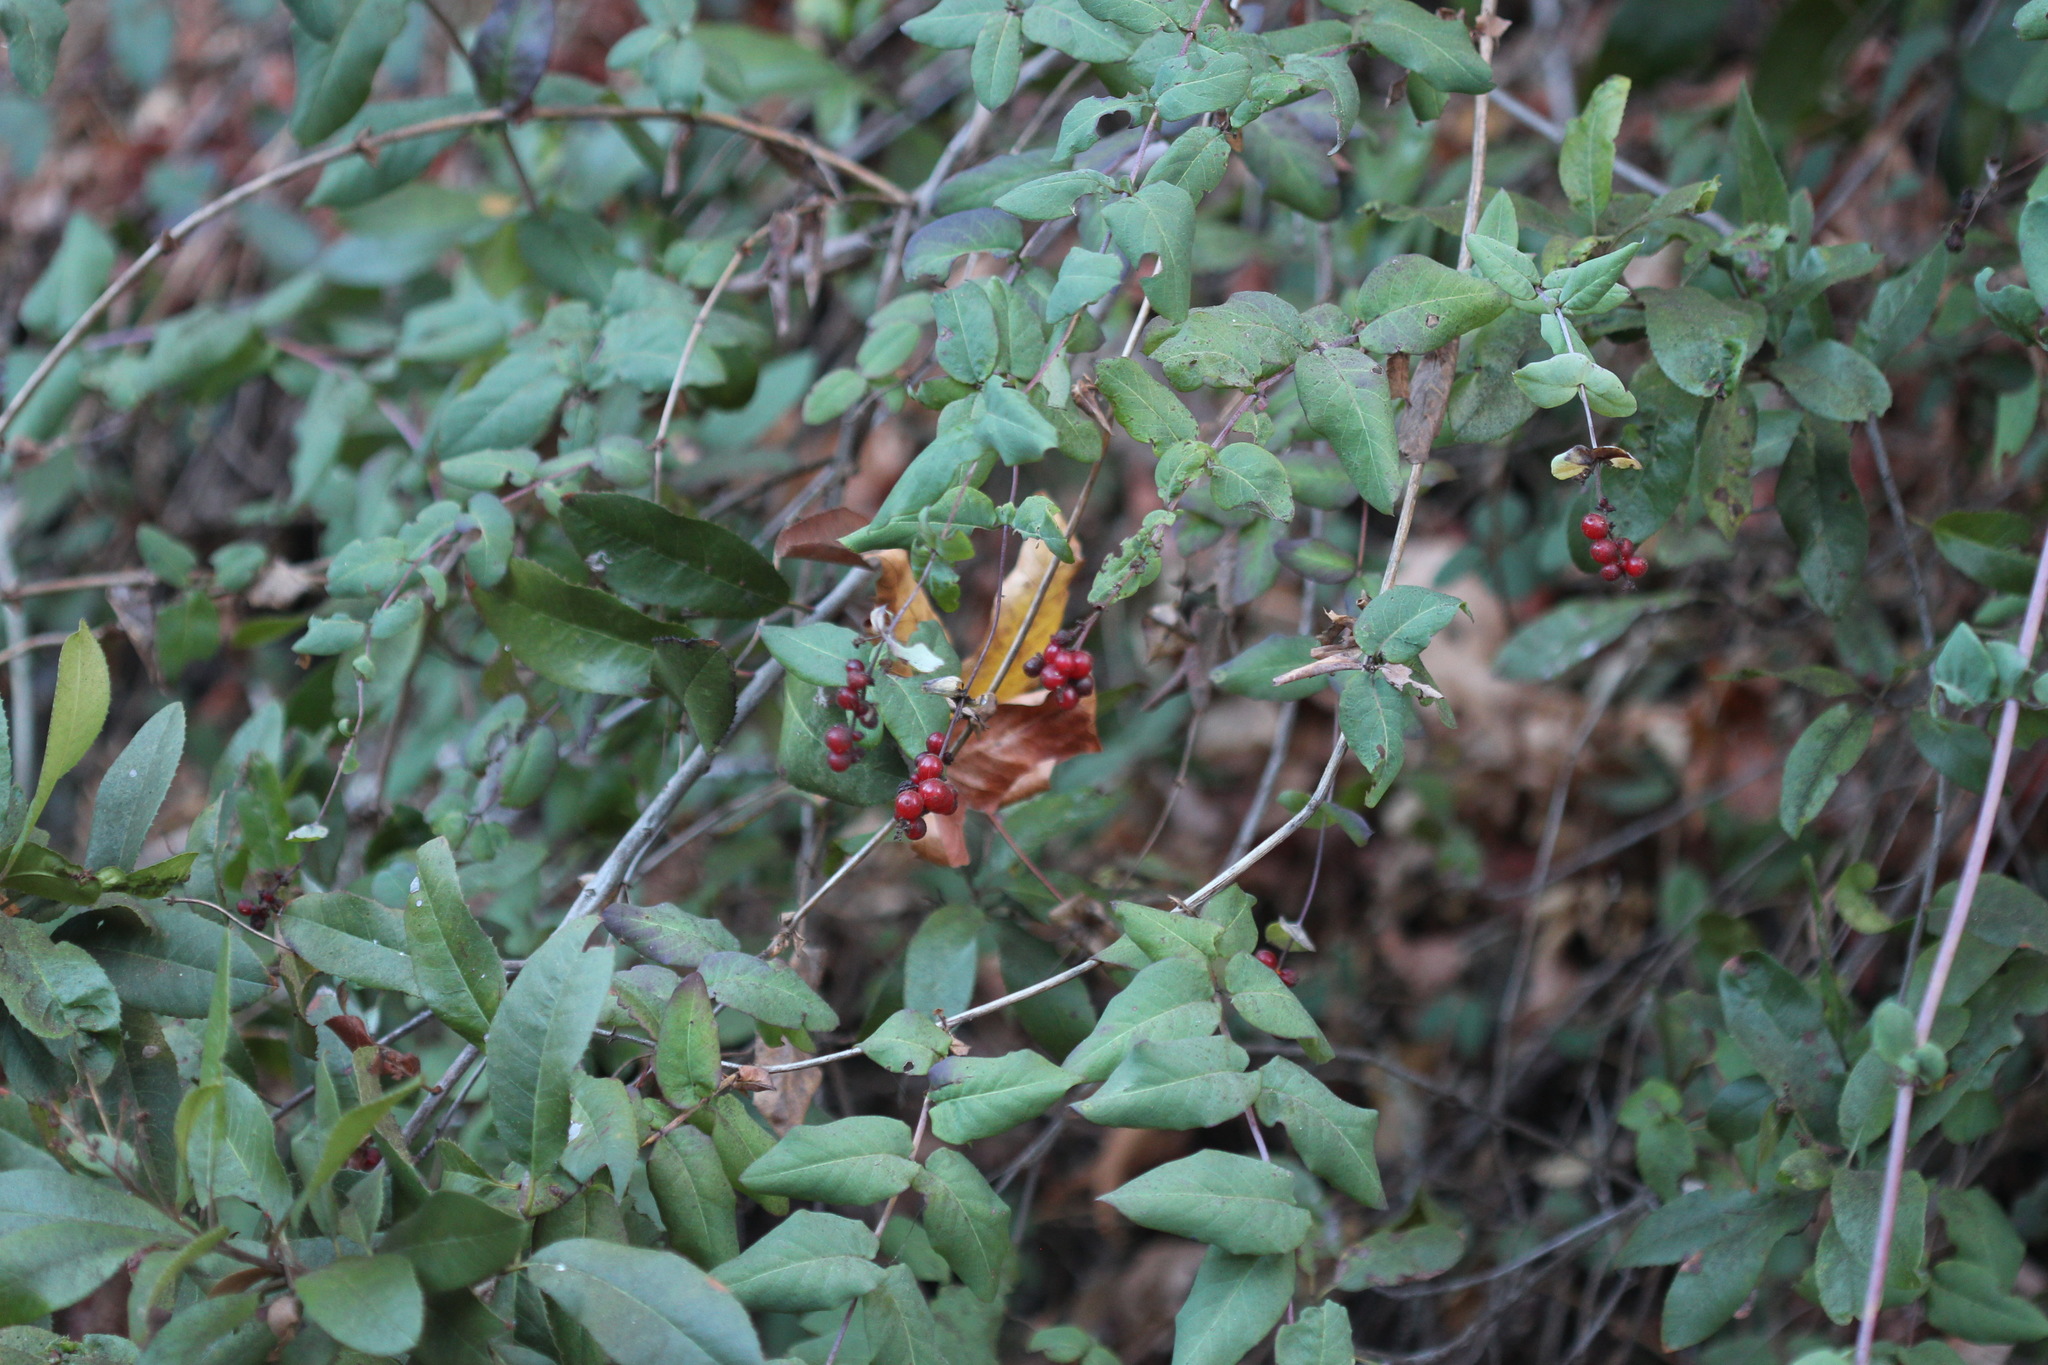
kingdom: Plantae
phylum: Tracheophyta
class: Magnoliopsida
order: Dipsacales
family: Caprifoliaceae
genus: Lonicera
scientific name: Lonicera hispidula
